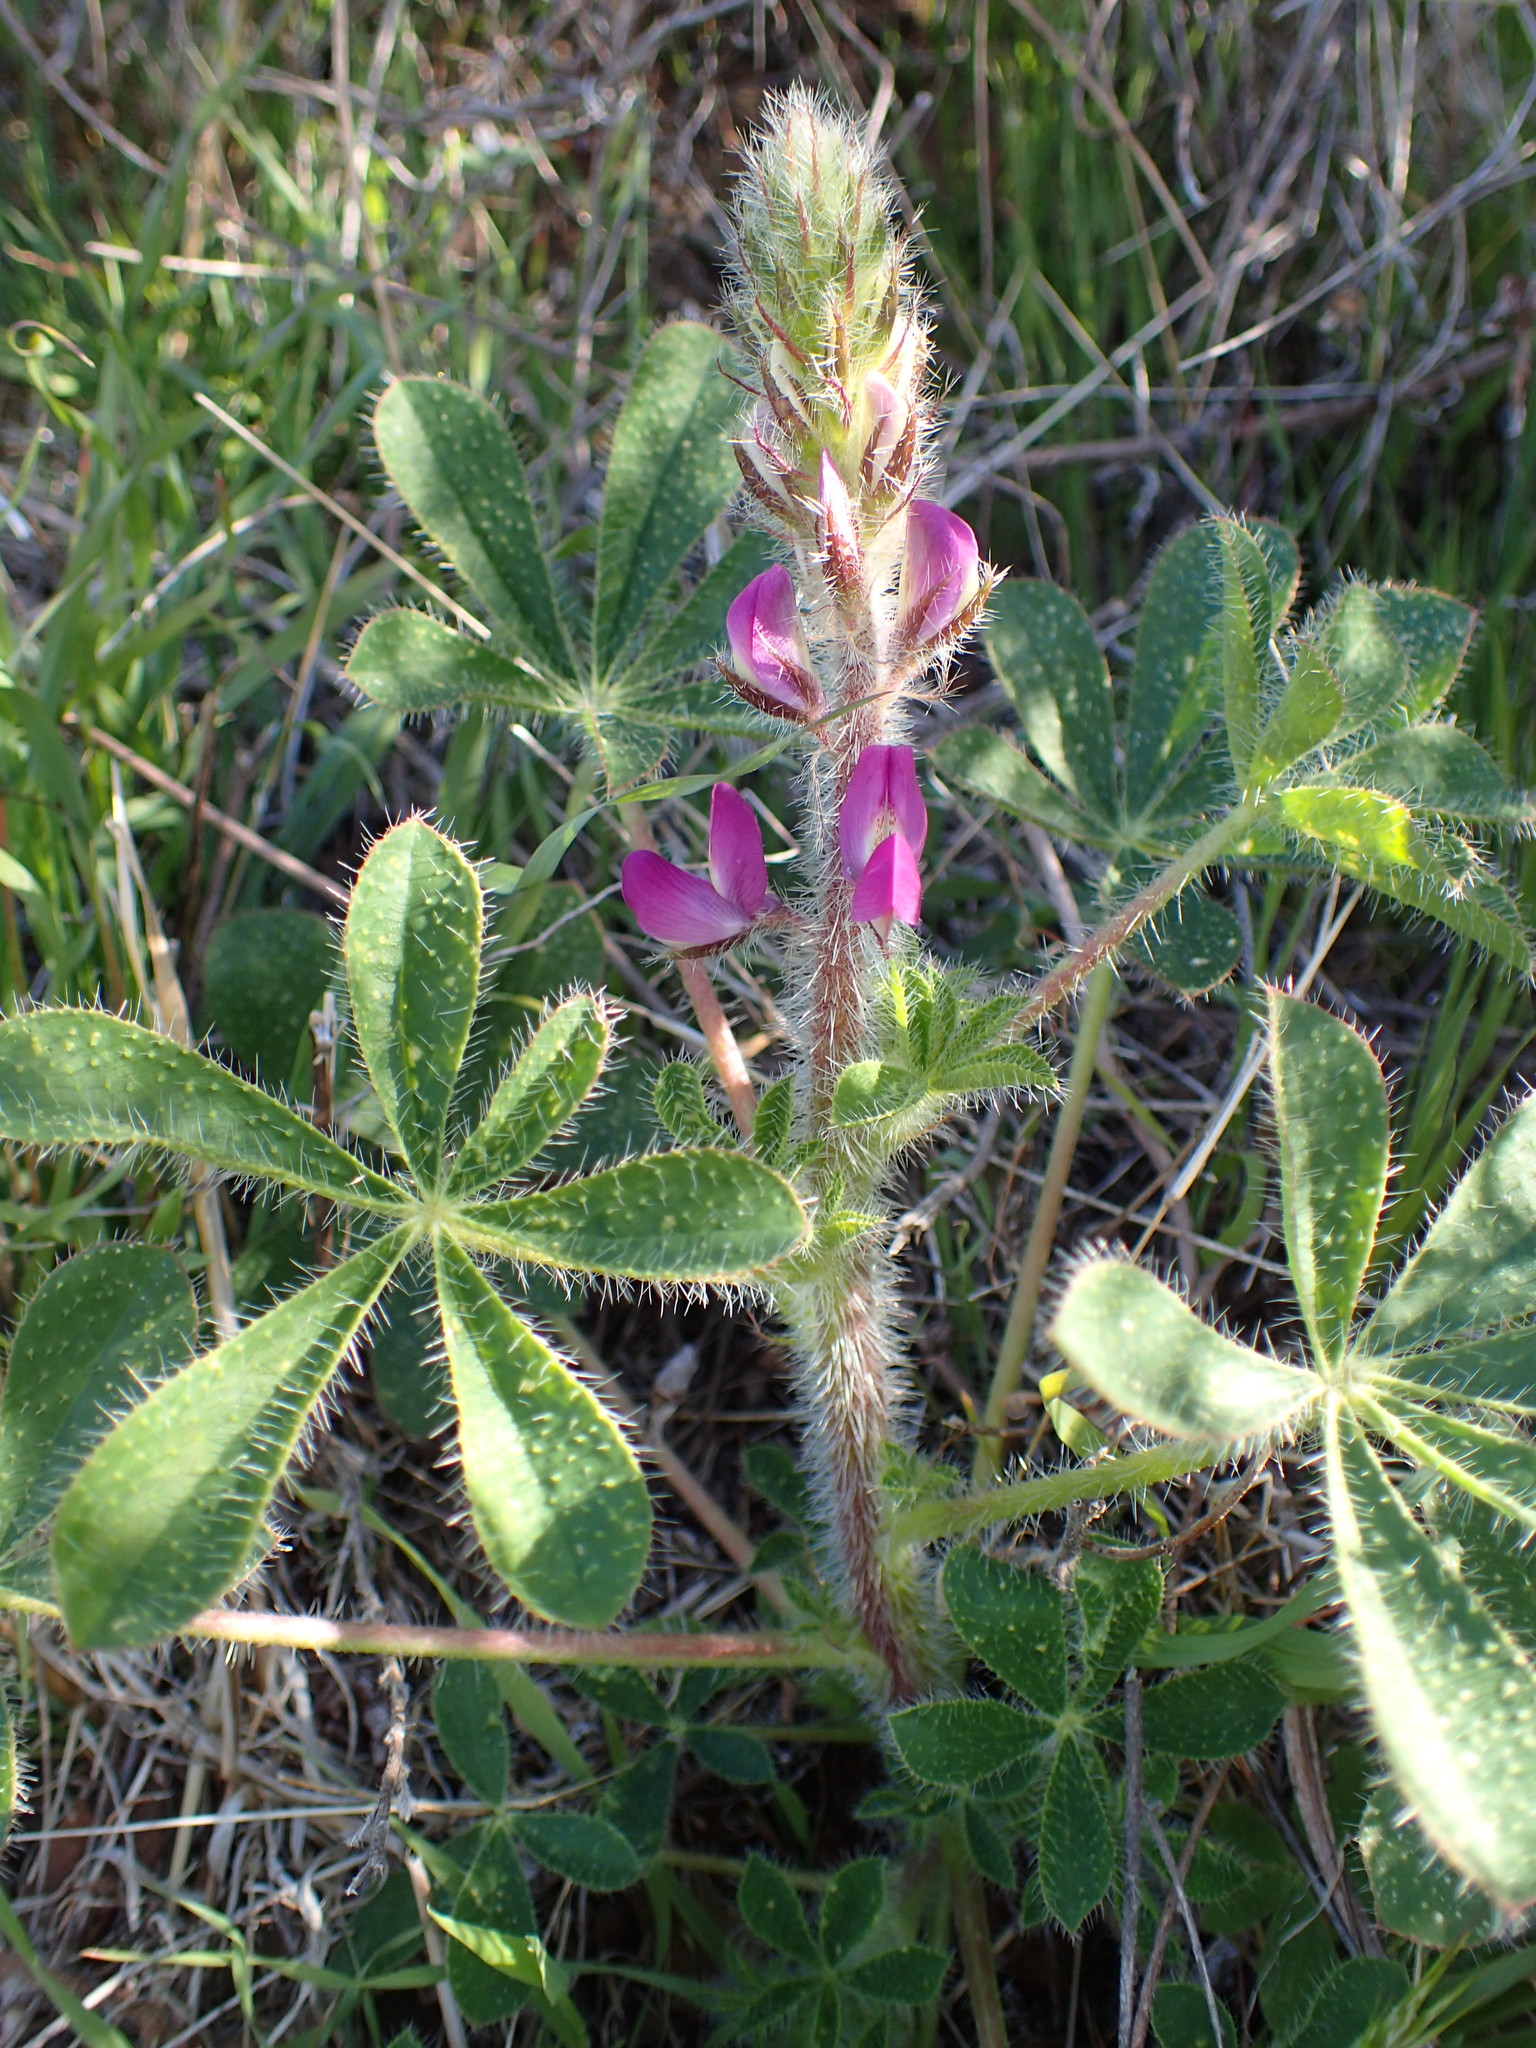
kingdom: Plantae
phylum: Tracheophyta
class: Magnoliopsida
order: Fabales
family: Fabaceae
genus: Lupinus
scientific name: Lupinus hirsutissimus
